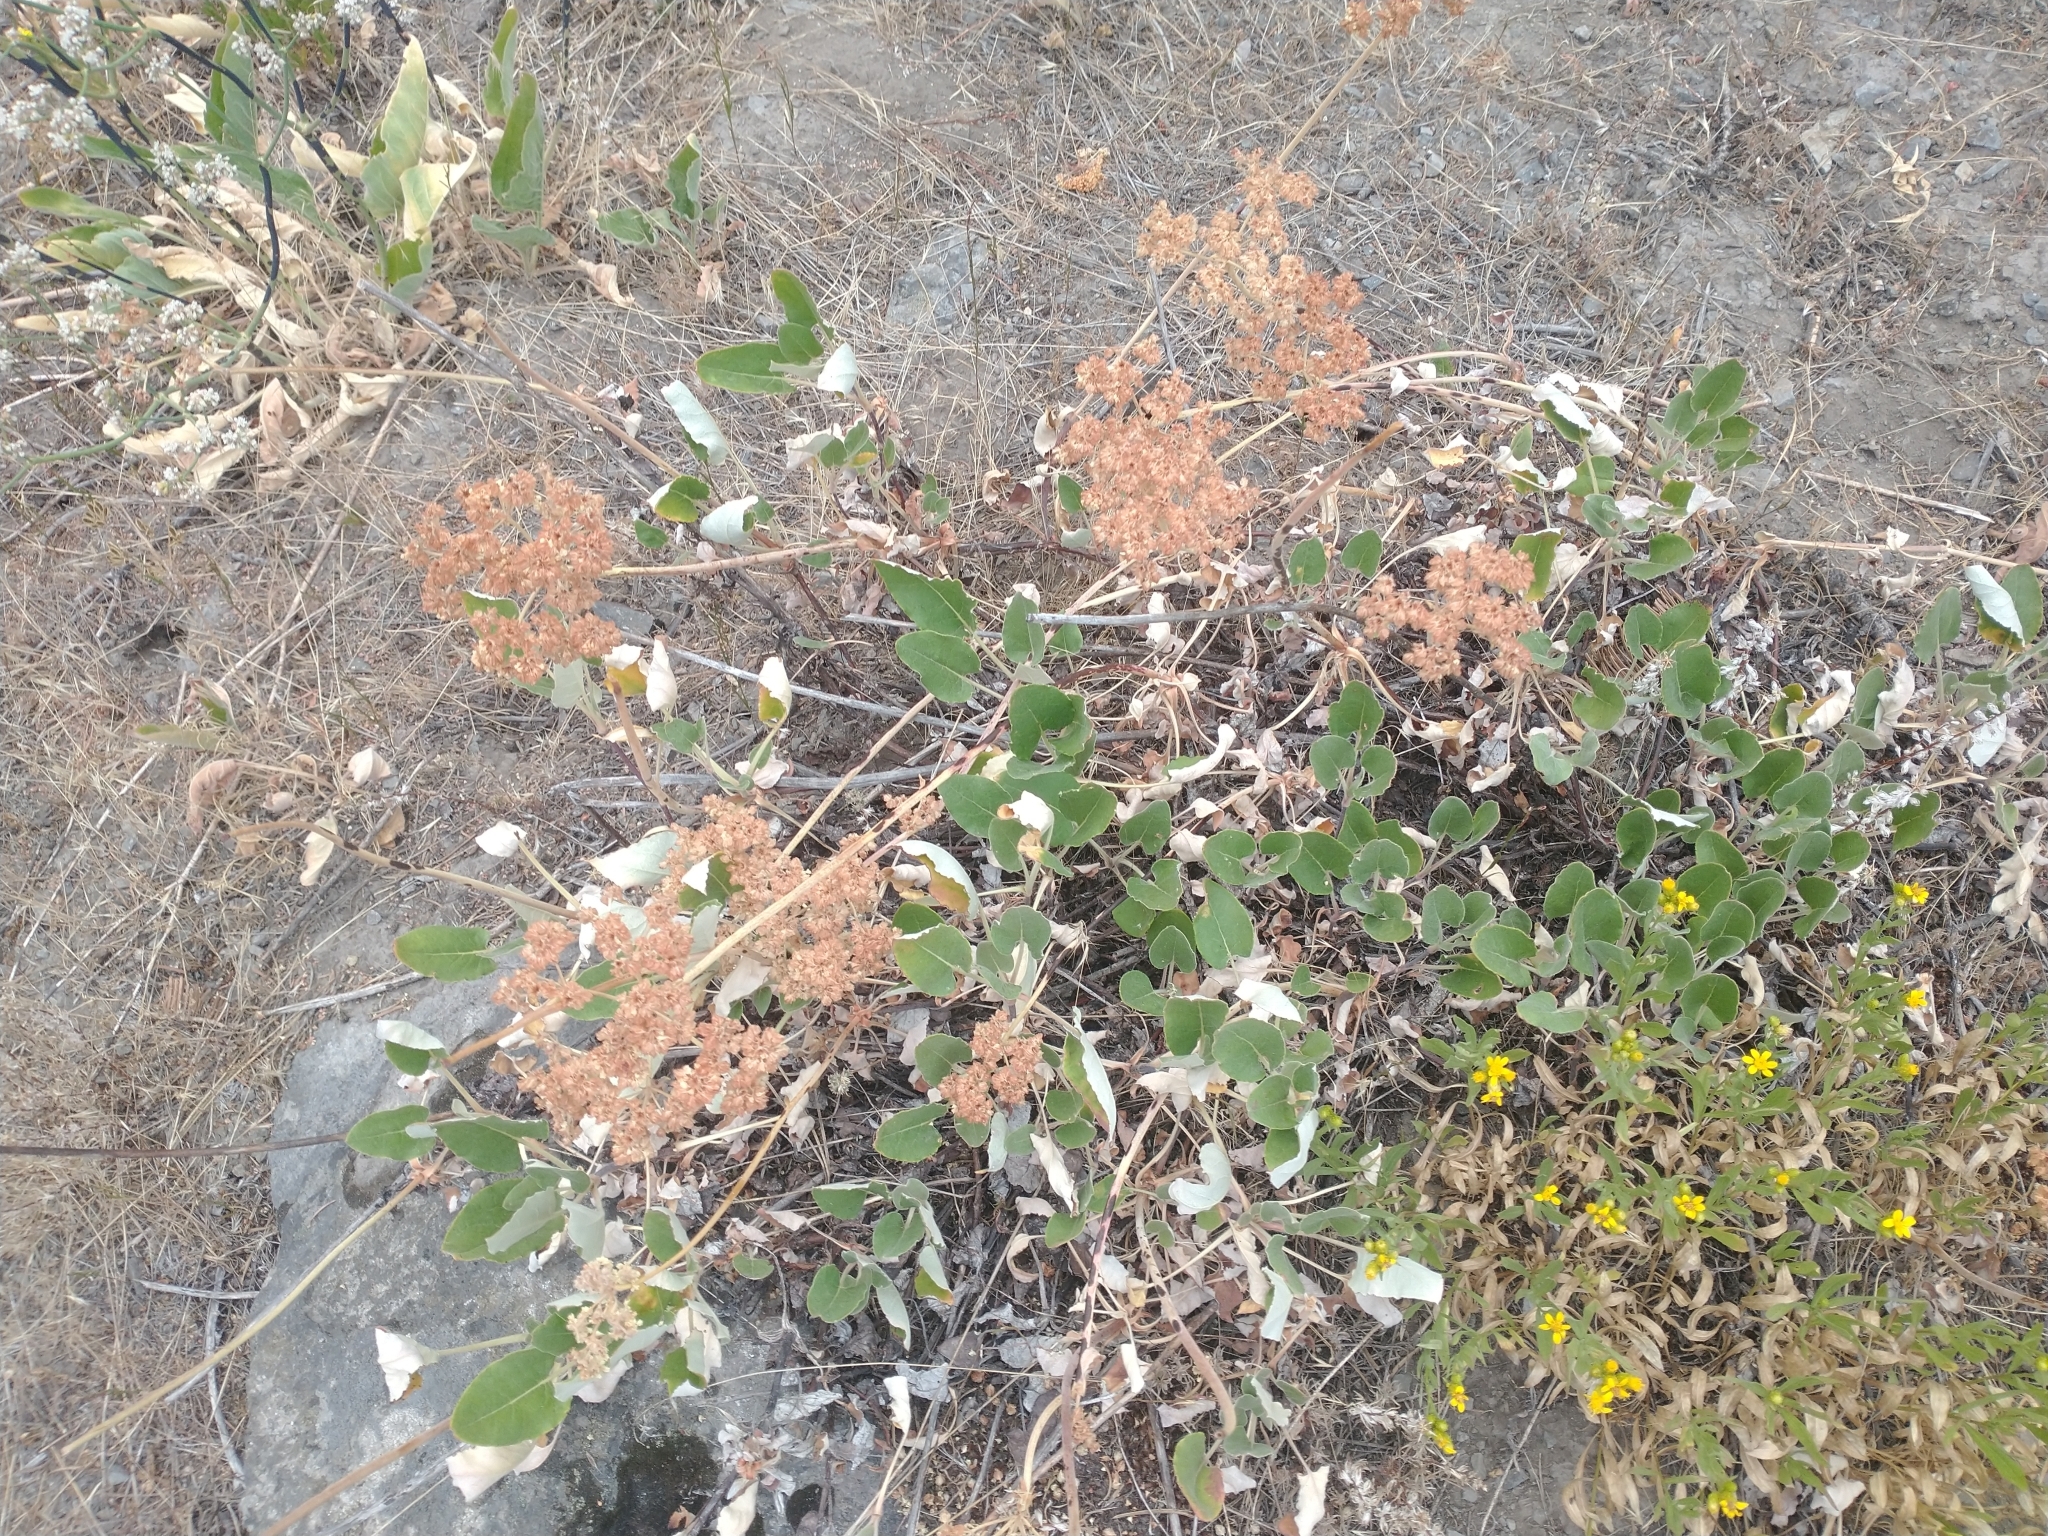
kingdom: Plantae
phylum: Tracheophyta
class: Magnoliopsida
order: Caryophyllales
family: Polygonaceae
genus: Eriogonum
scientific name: Eriogonum compositum
